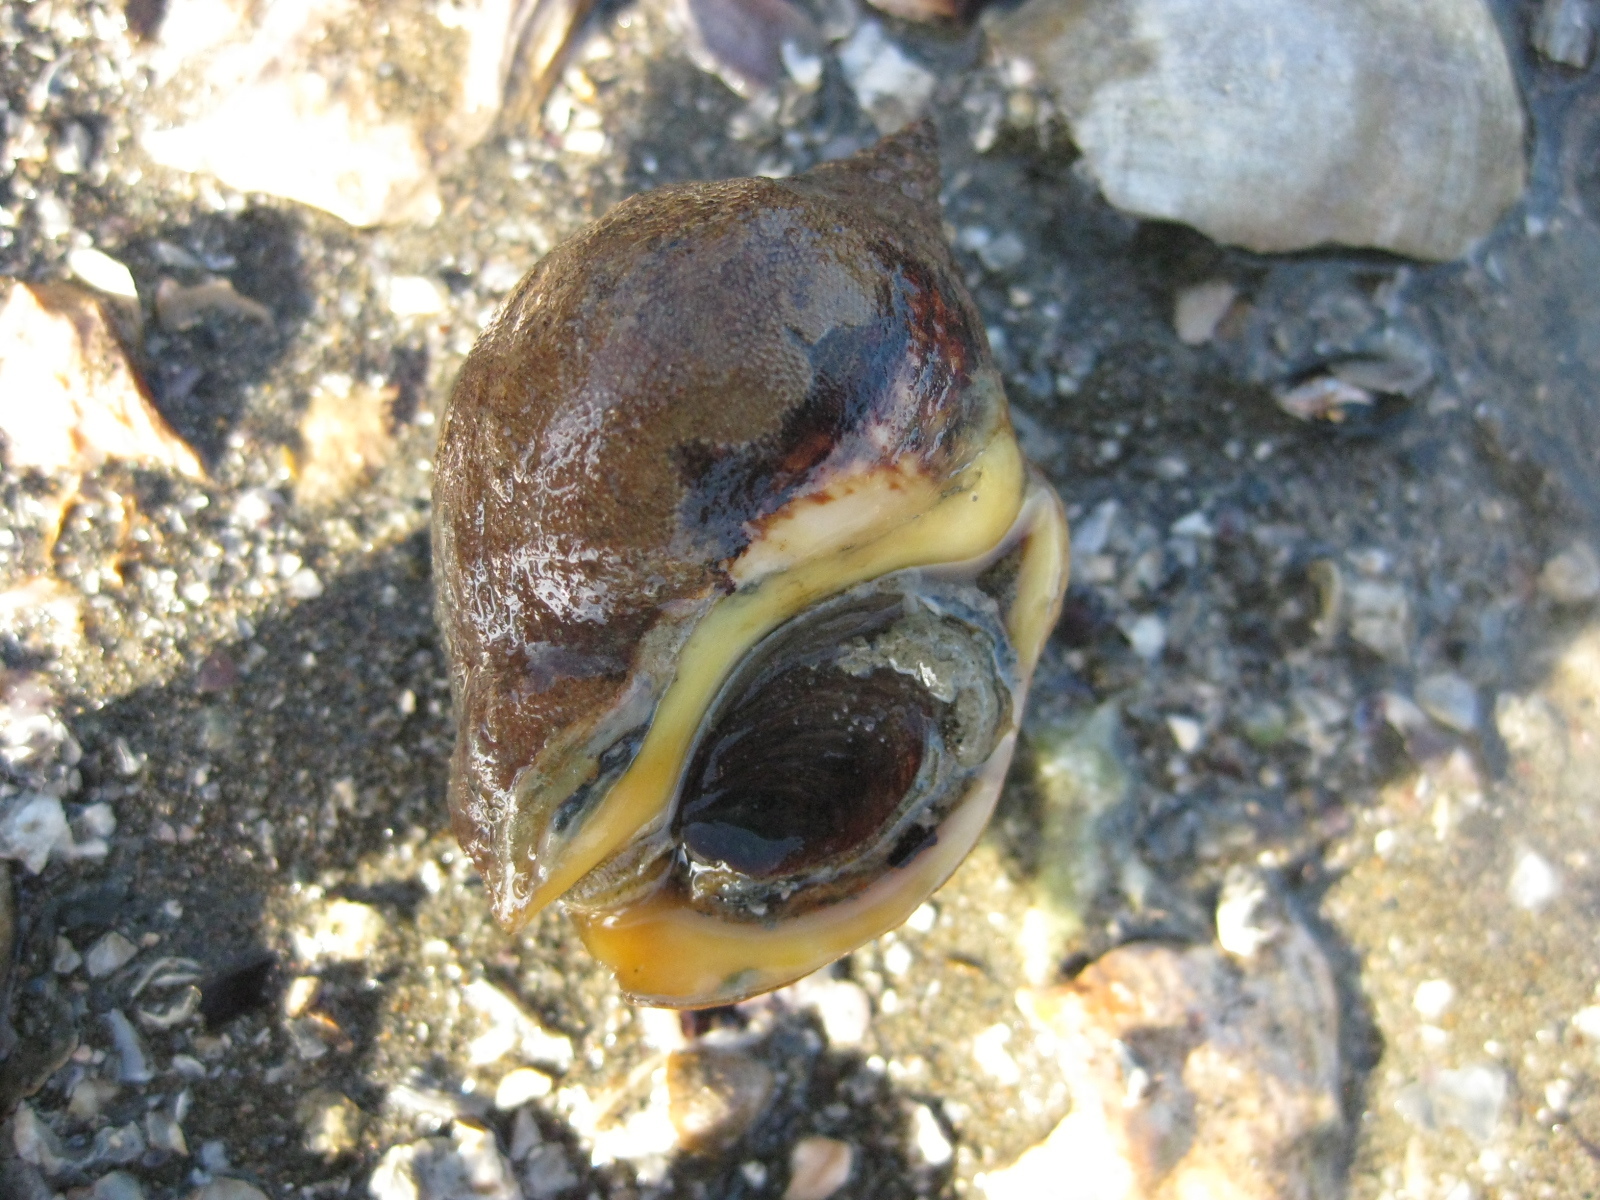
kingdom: Animalia
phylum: Mollusca
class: Gastropoda
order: Neogastropoda
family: Cominellidae
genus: Cominella
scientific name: Cominella adspersa
